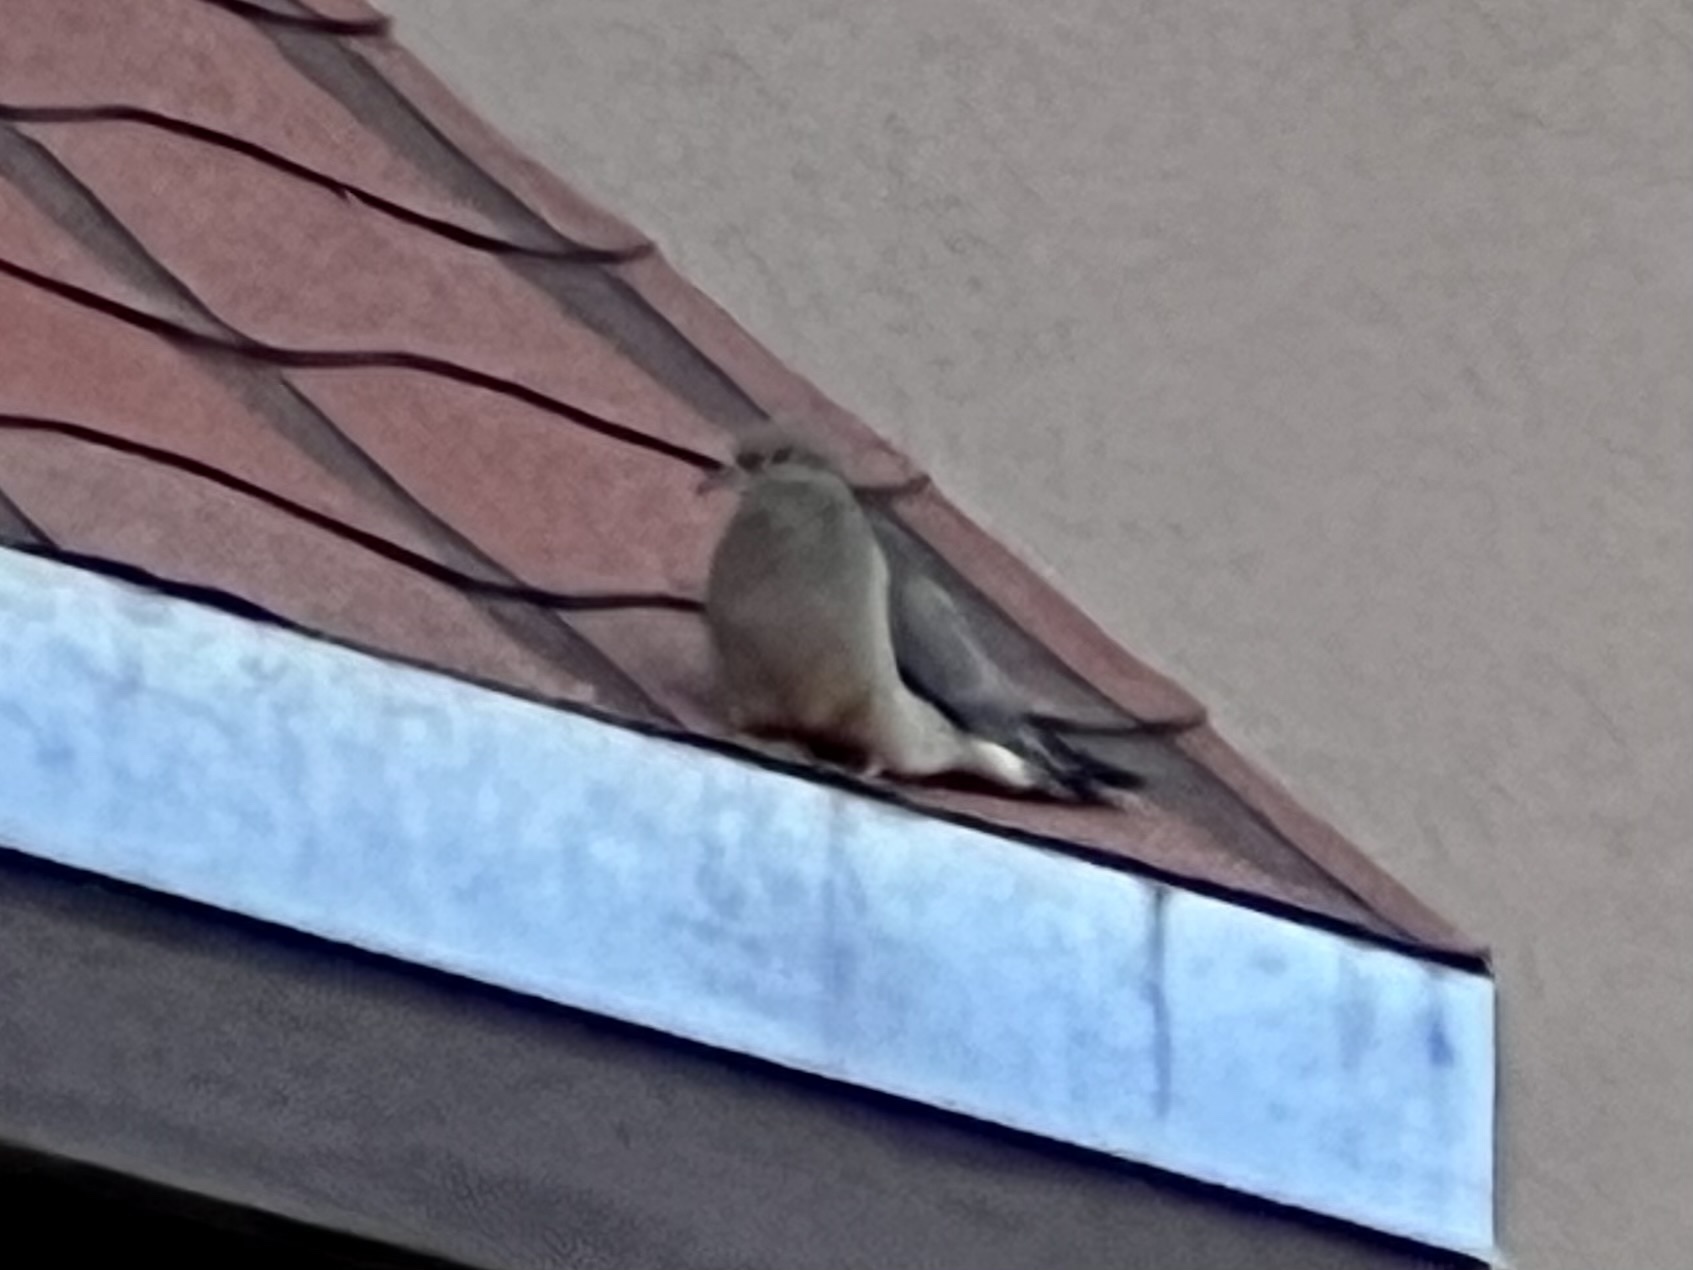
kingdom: Animalia
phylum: Chordata
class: Aves
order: Columbiformes
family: Columbidae
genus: Zenaida
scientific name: Zenaida macroura
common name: Mourning dove
